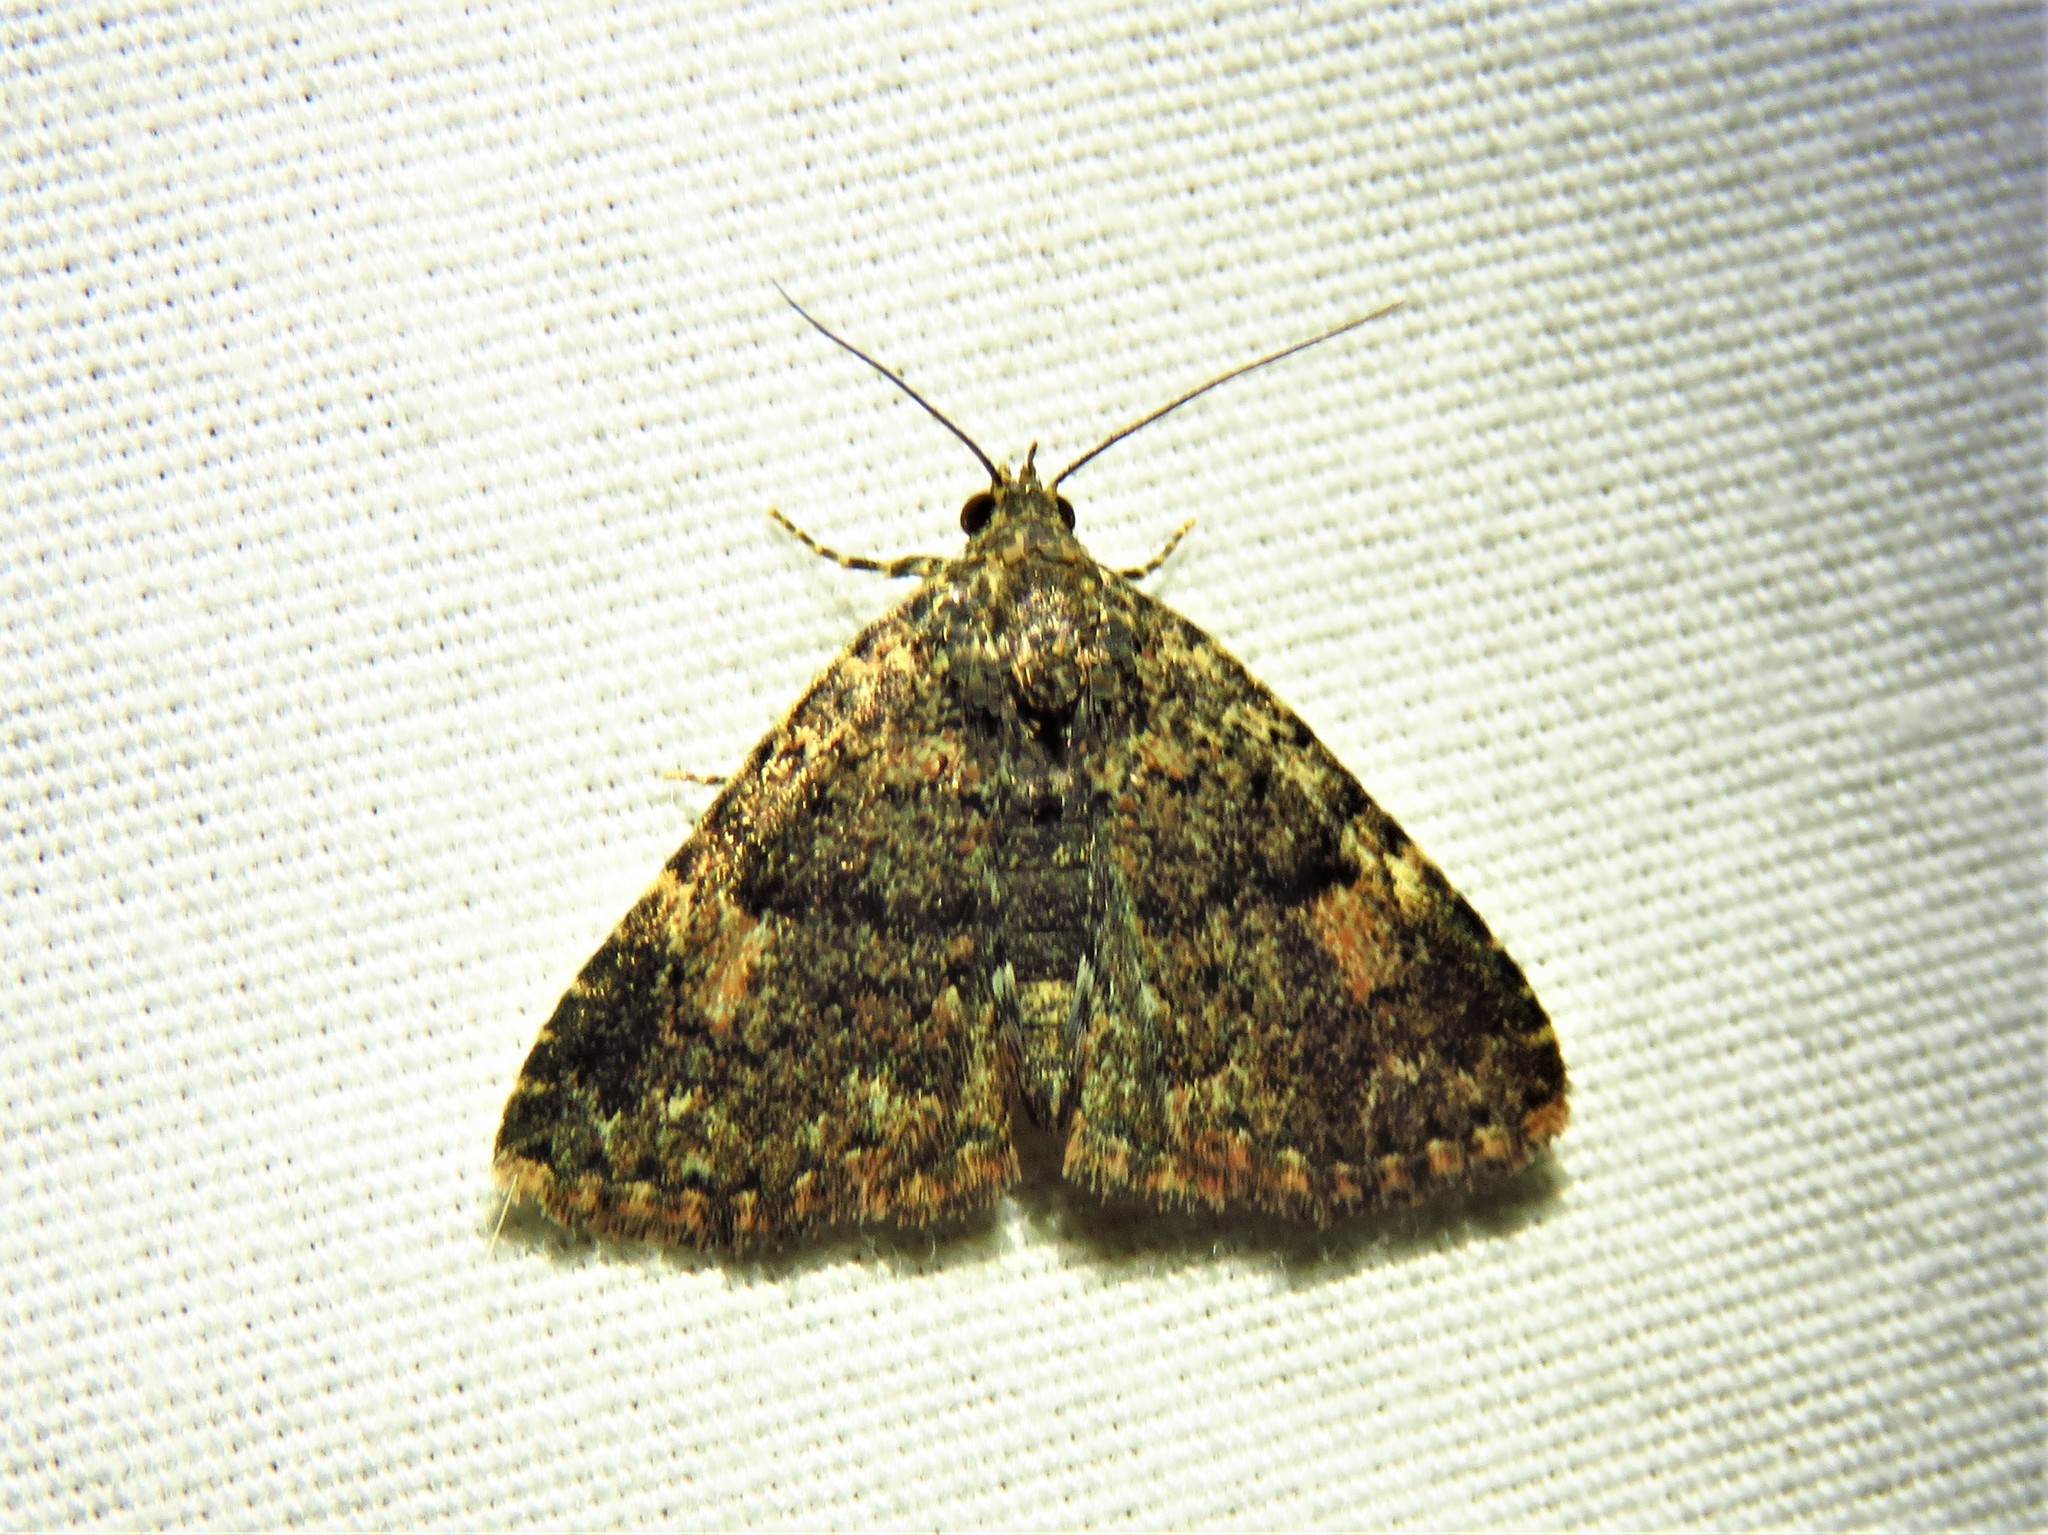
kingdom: Animalia
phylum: Arthropoda
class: Insecta
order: Lepidoptera
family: Erebidae
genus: Metalectra
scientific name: Metalectra miserulata
